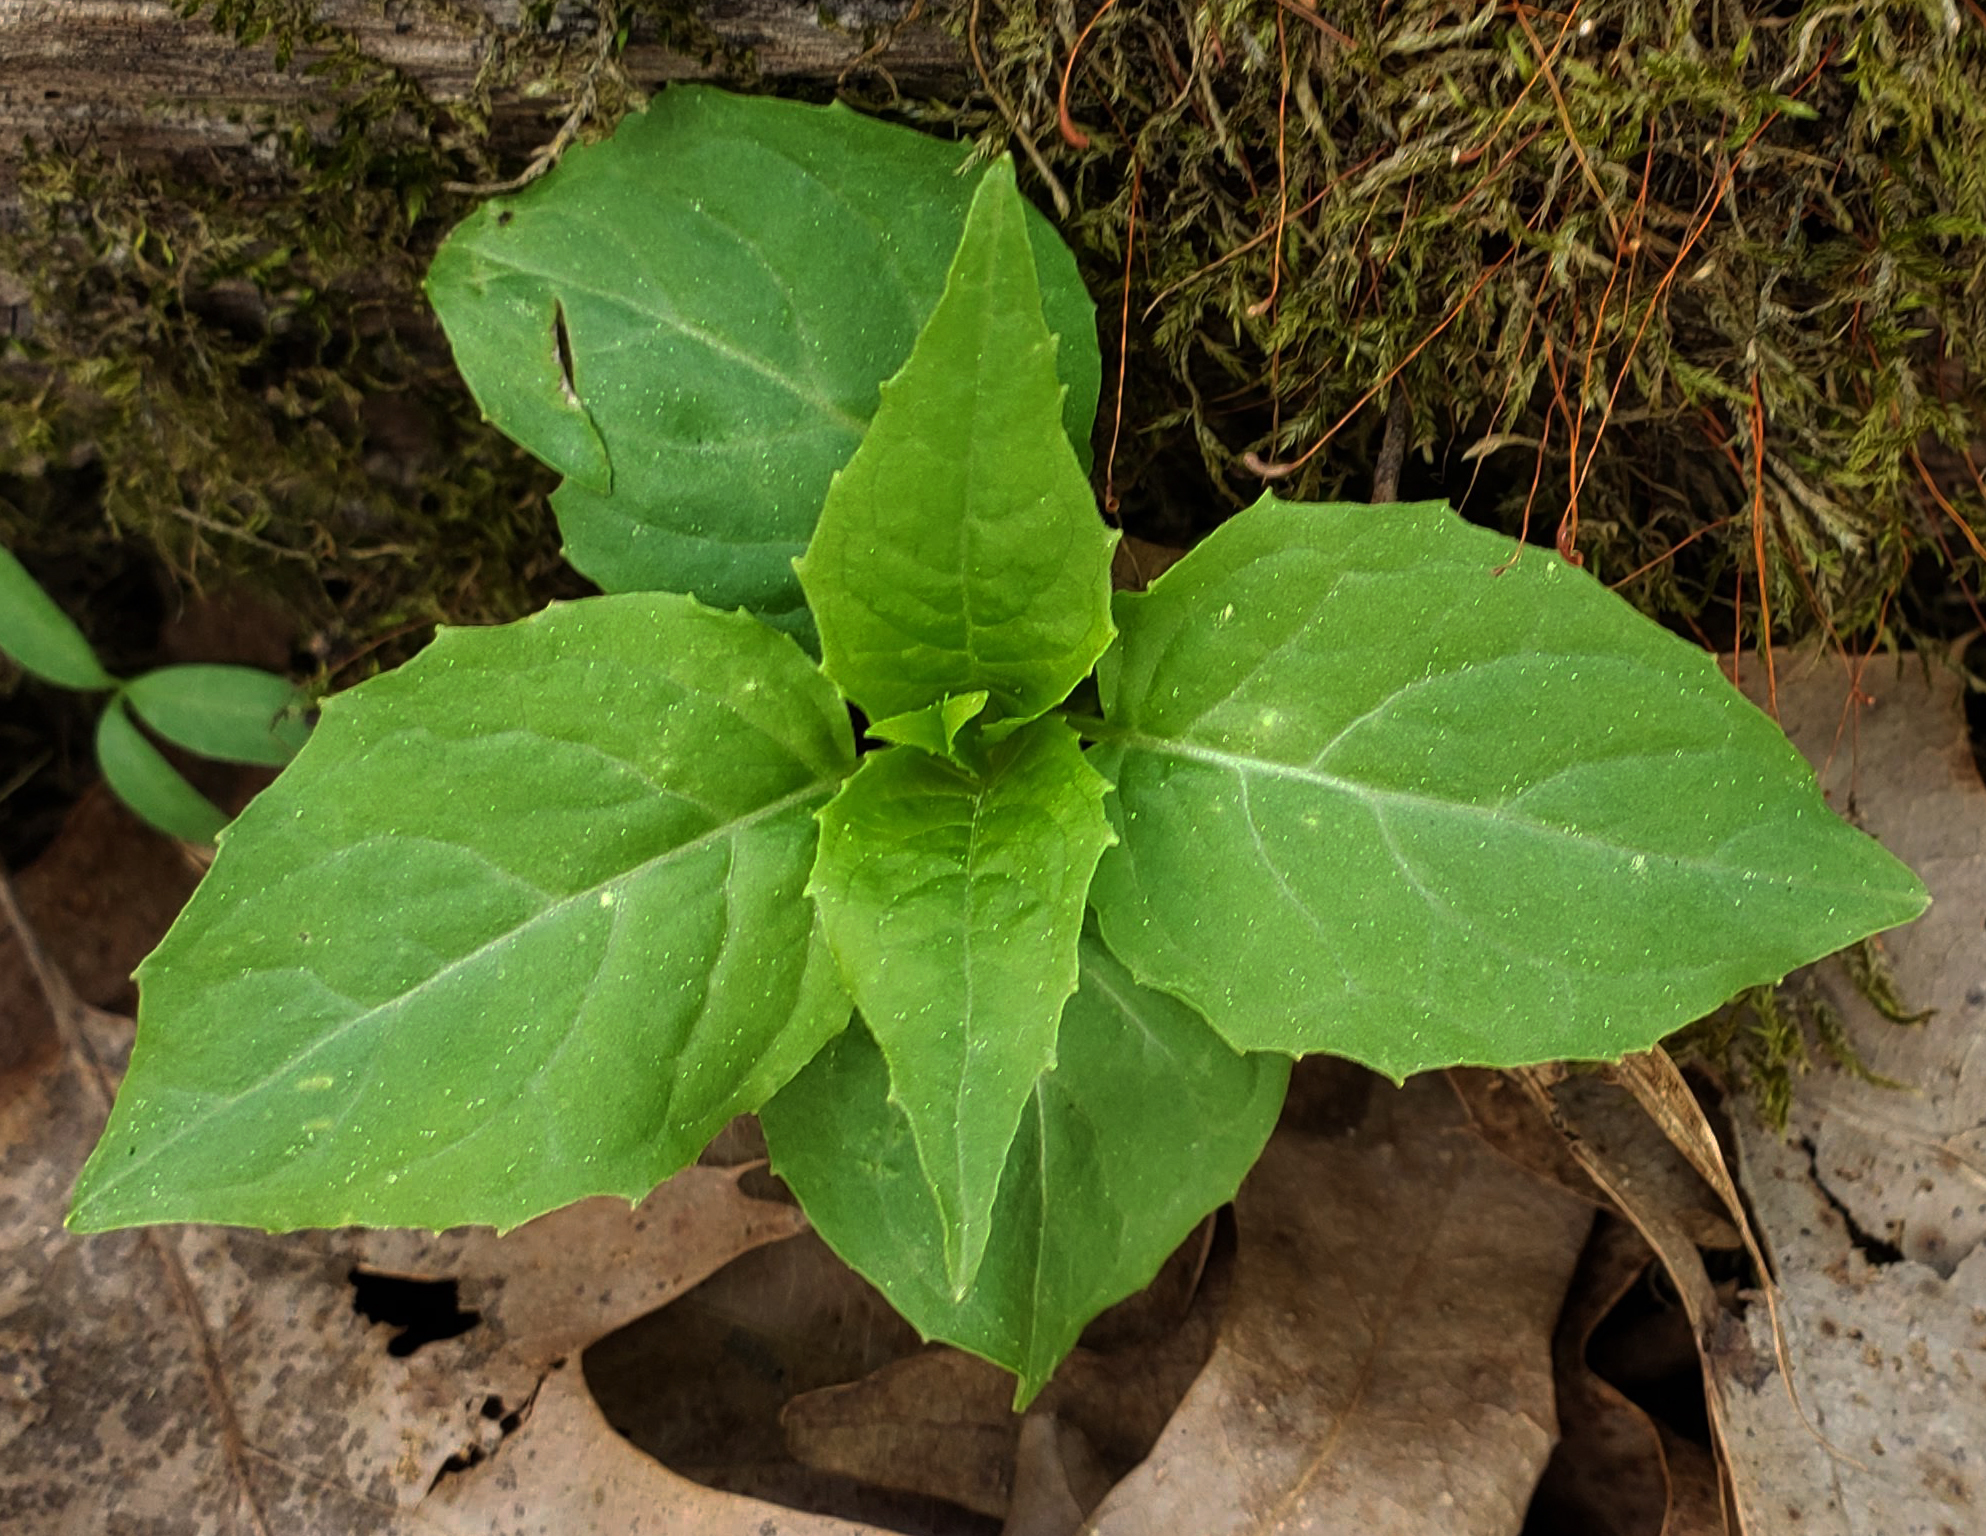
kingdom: Plantae
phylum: Tracheophyta
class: Magnoliopsida
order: Myrtales
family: Onagraceae
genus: Circaea
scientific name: Circaea canadensis
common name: Broad-leaved enchanter's nightshade
